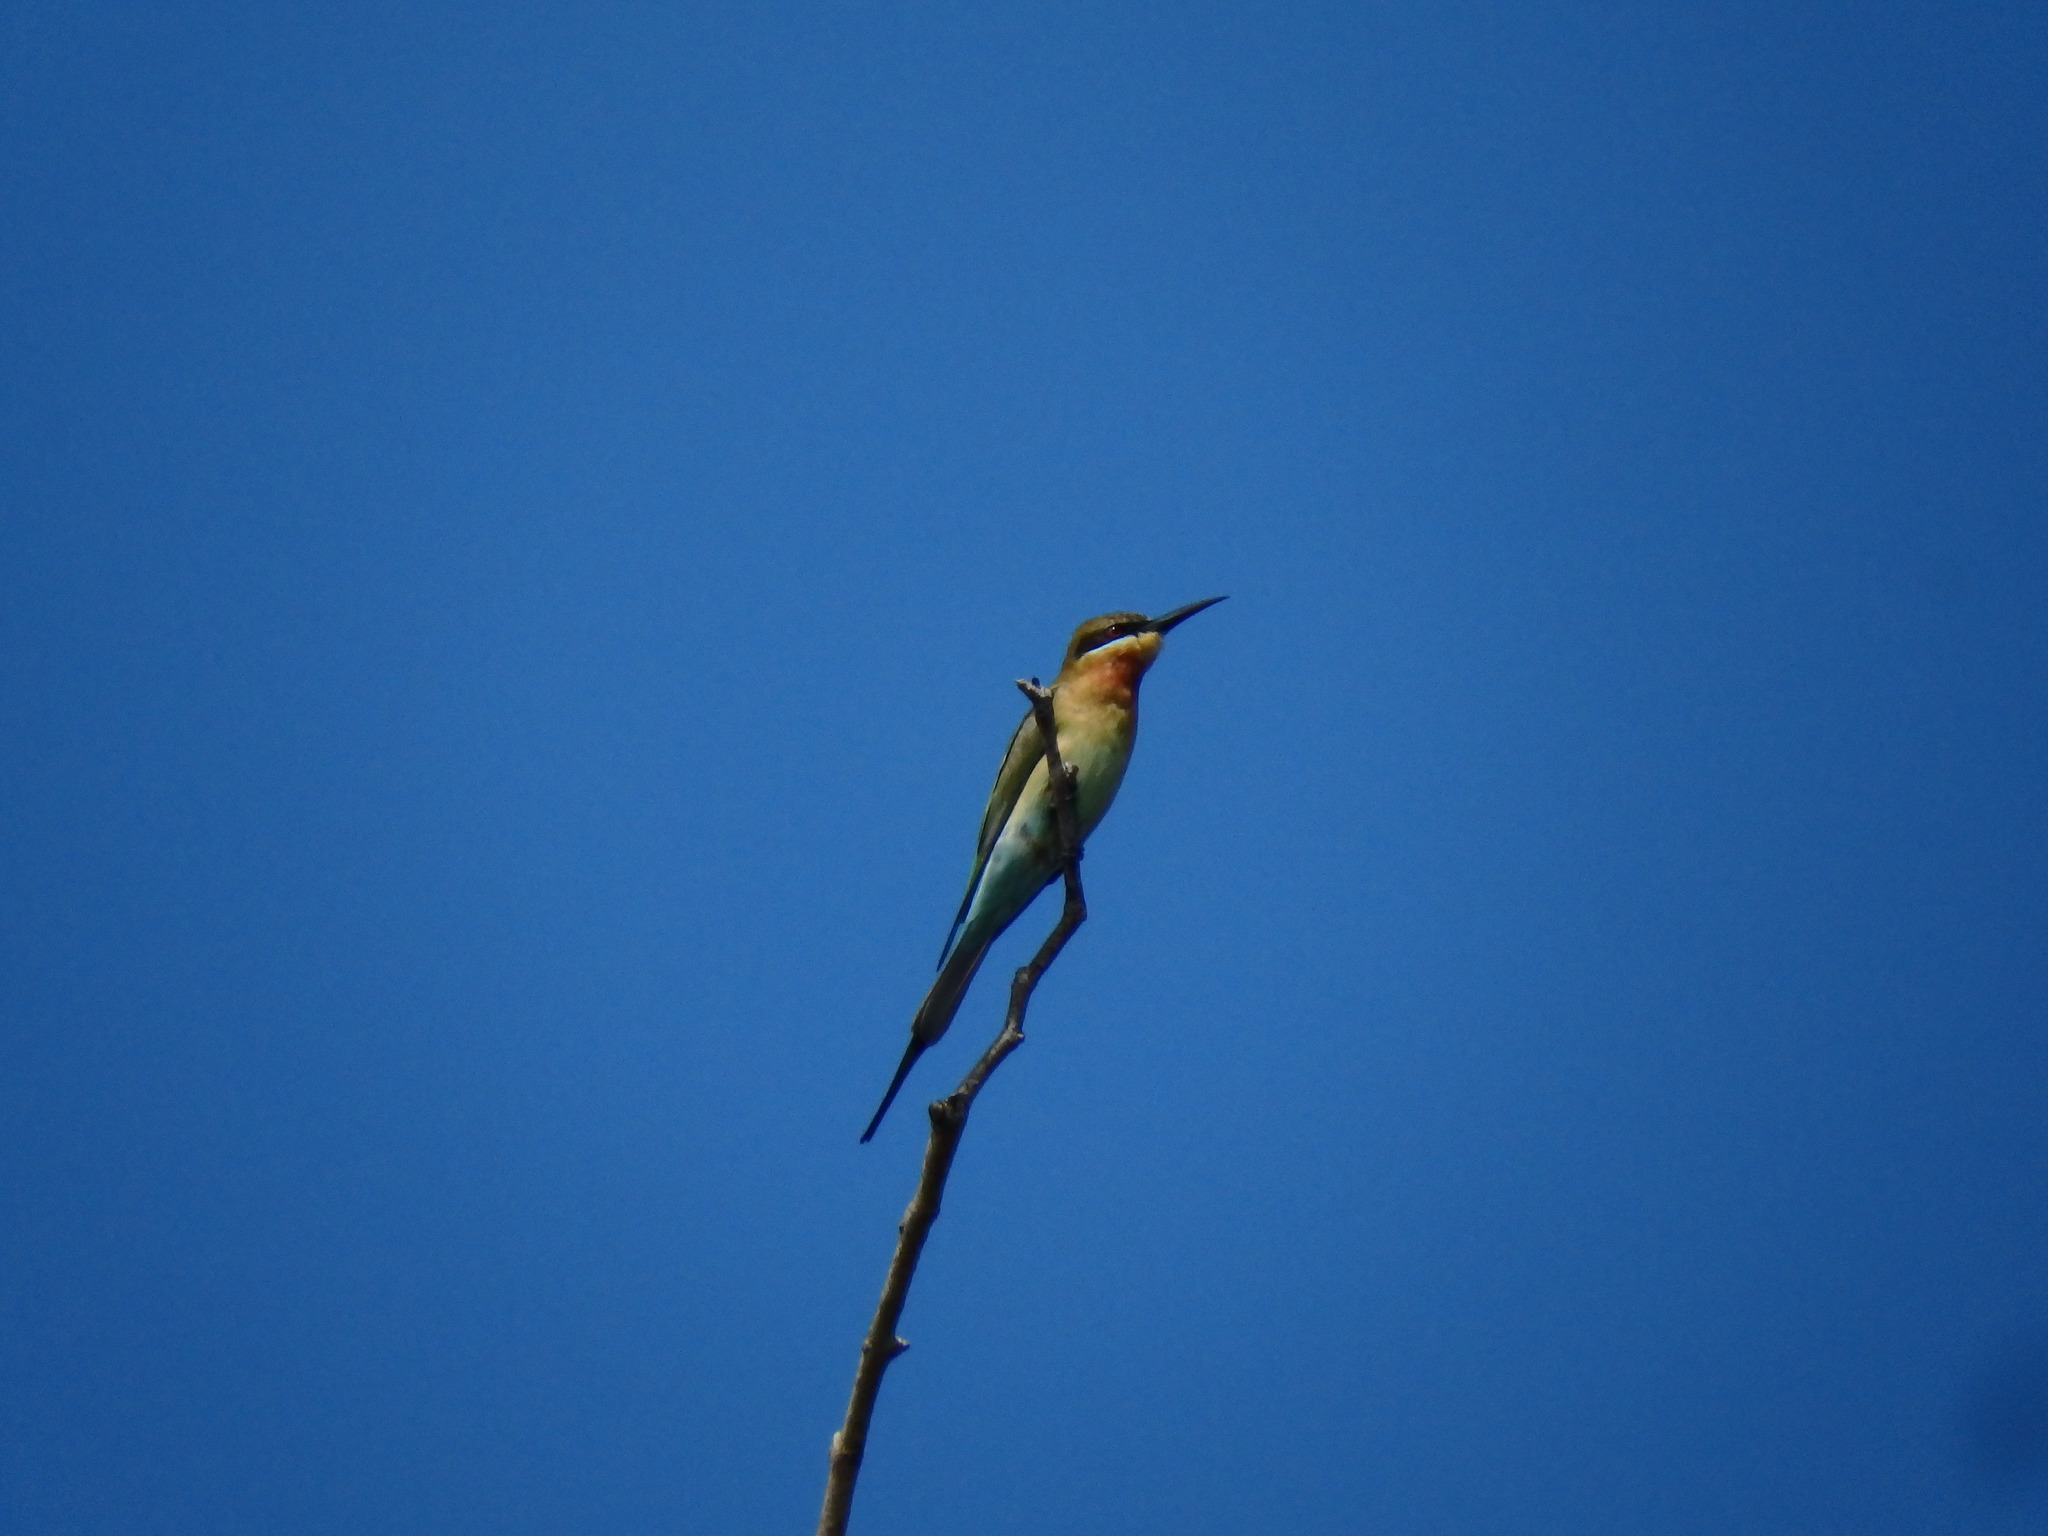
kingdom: Animalia
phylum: Chordata
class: Aves
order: Coraciiformes
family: Meropidae
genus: Merops
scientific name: Merops philippinus
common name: Blue-tailed bee-eater
